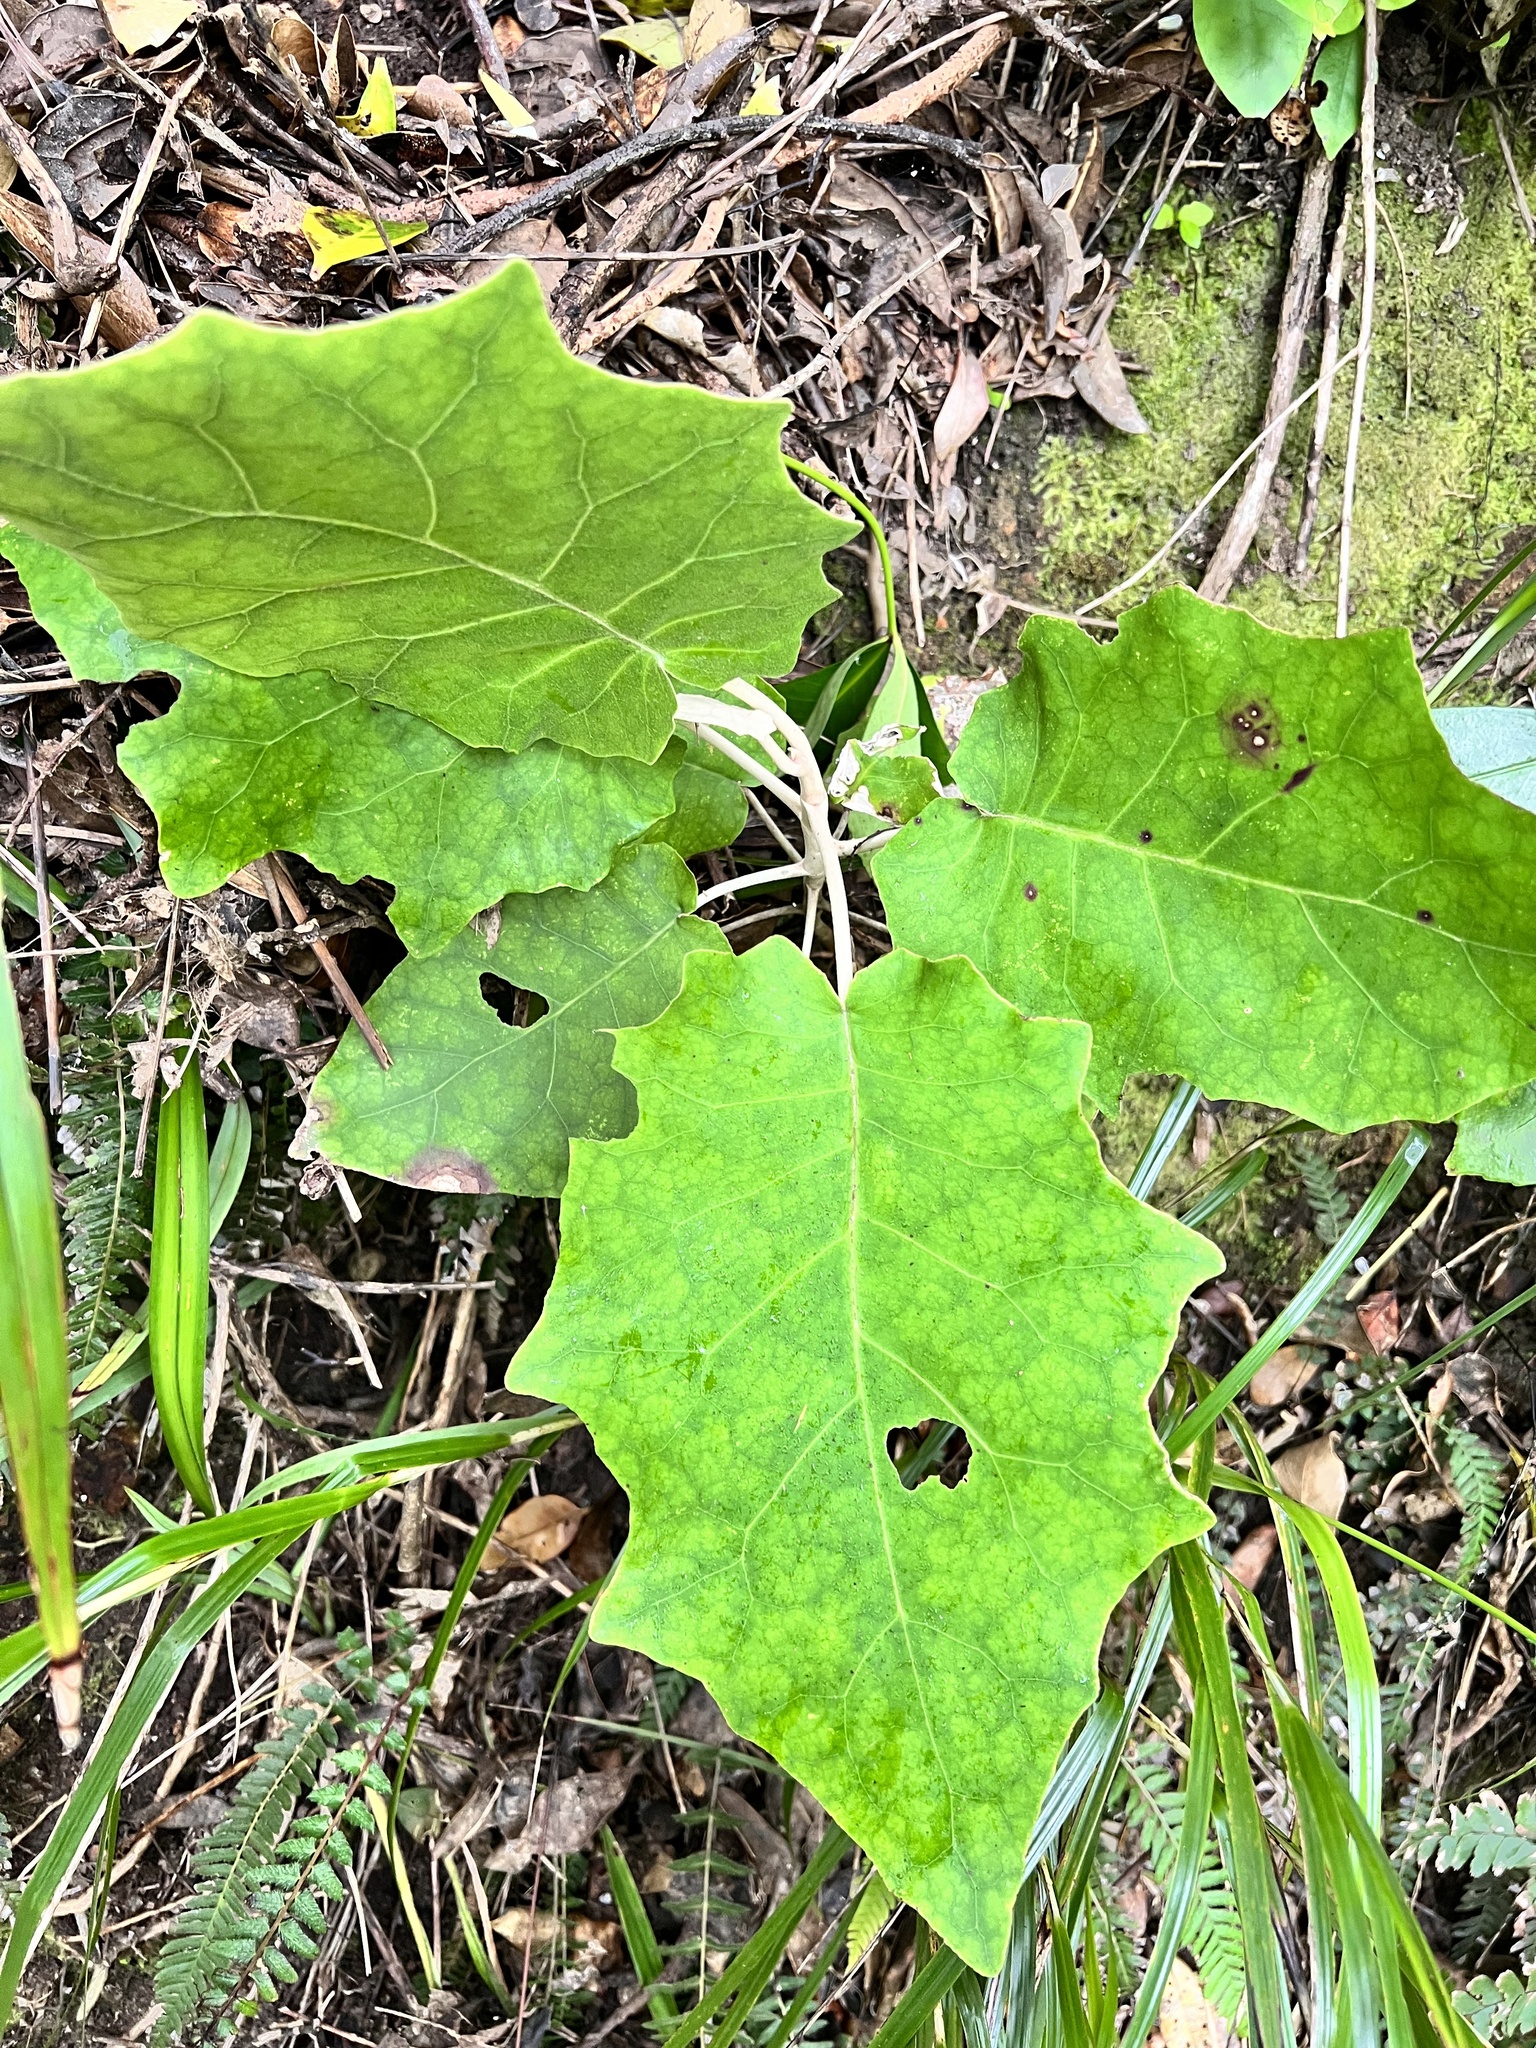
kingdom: Plantae
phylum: Tracheophyta
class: Magnoliopsida
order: Asterales
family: Asteraceae
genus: Brachyglottis
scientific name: Brachyglottis repanda
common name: Hedge ragwort
